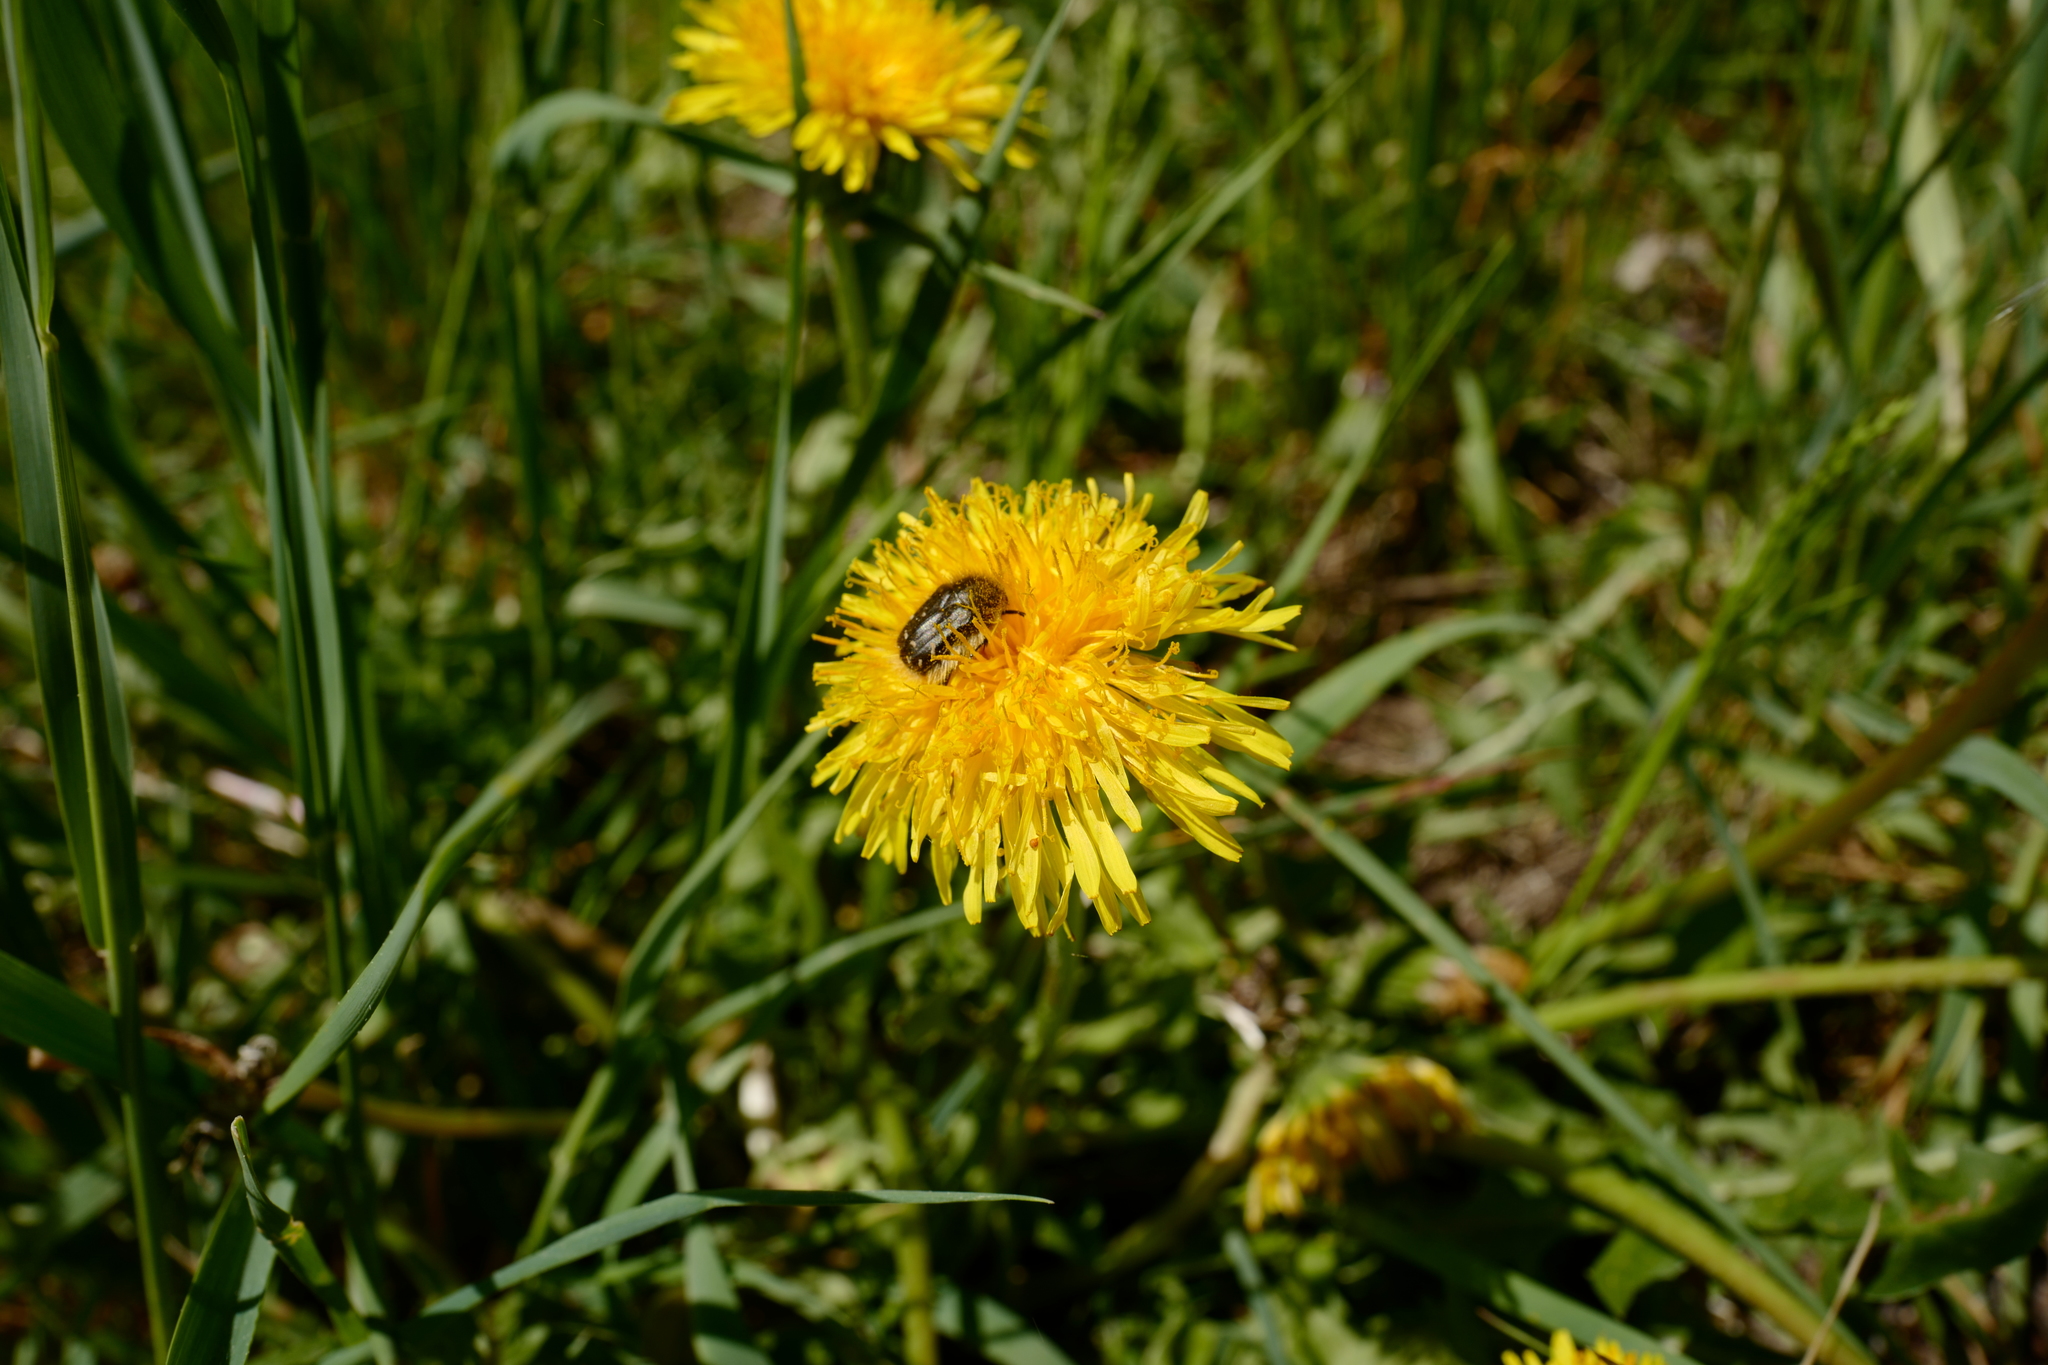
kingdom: Animalia
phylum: Arthropoda
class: Insecta
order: Coleoptera
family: Scarabaeidae
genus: Tropinota
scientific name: Tropinota hirta
